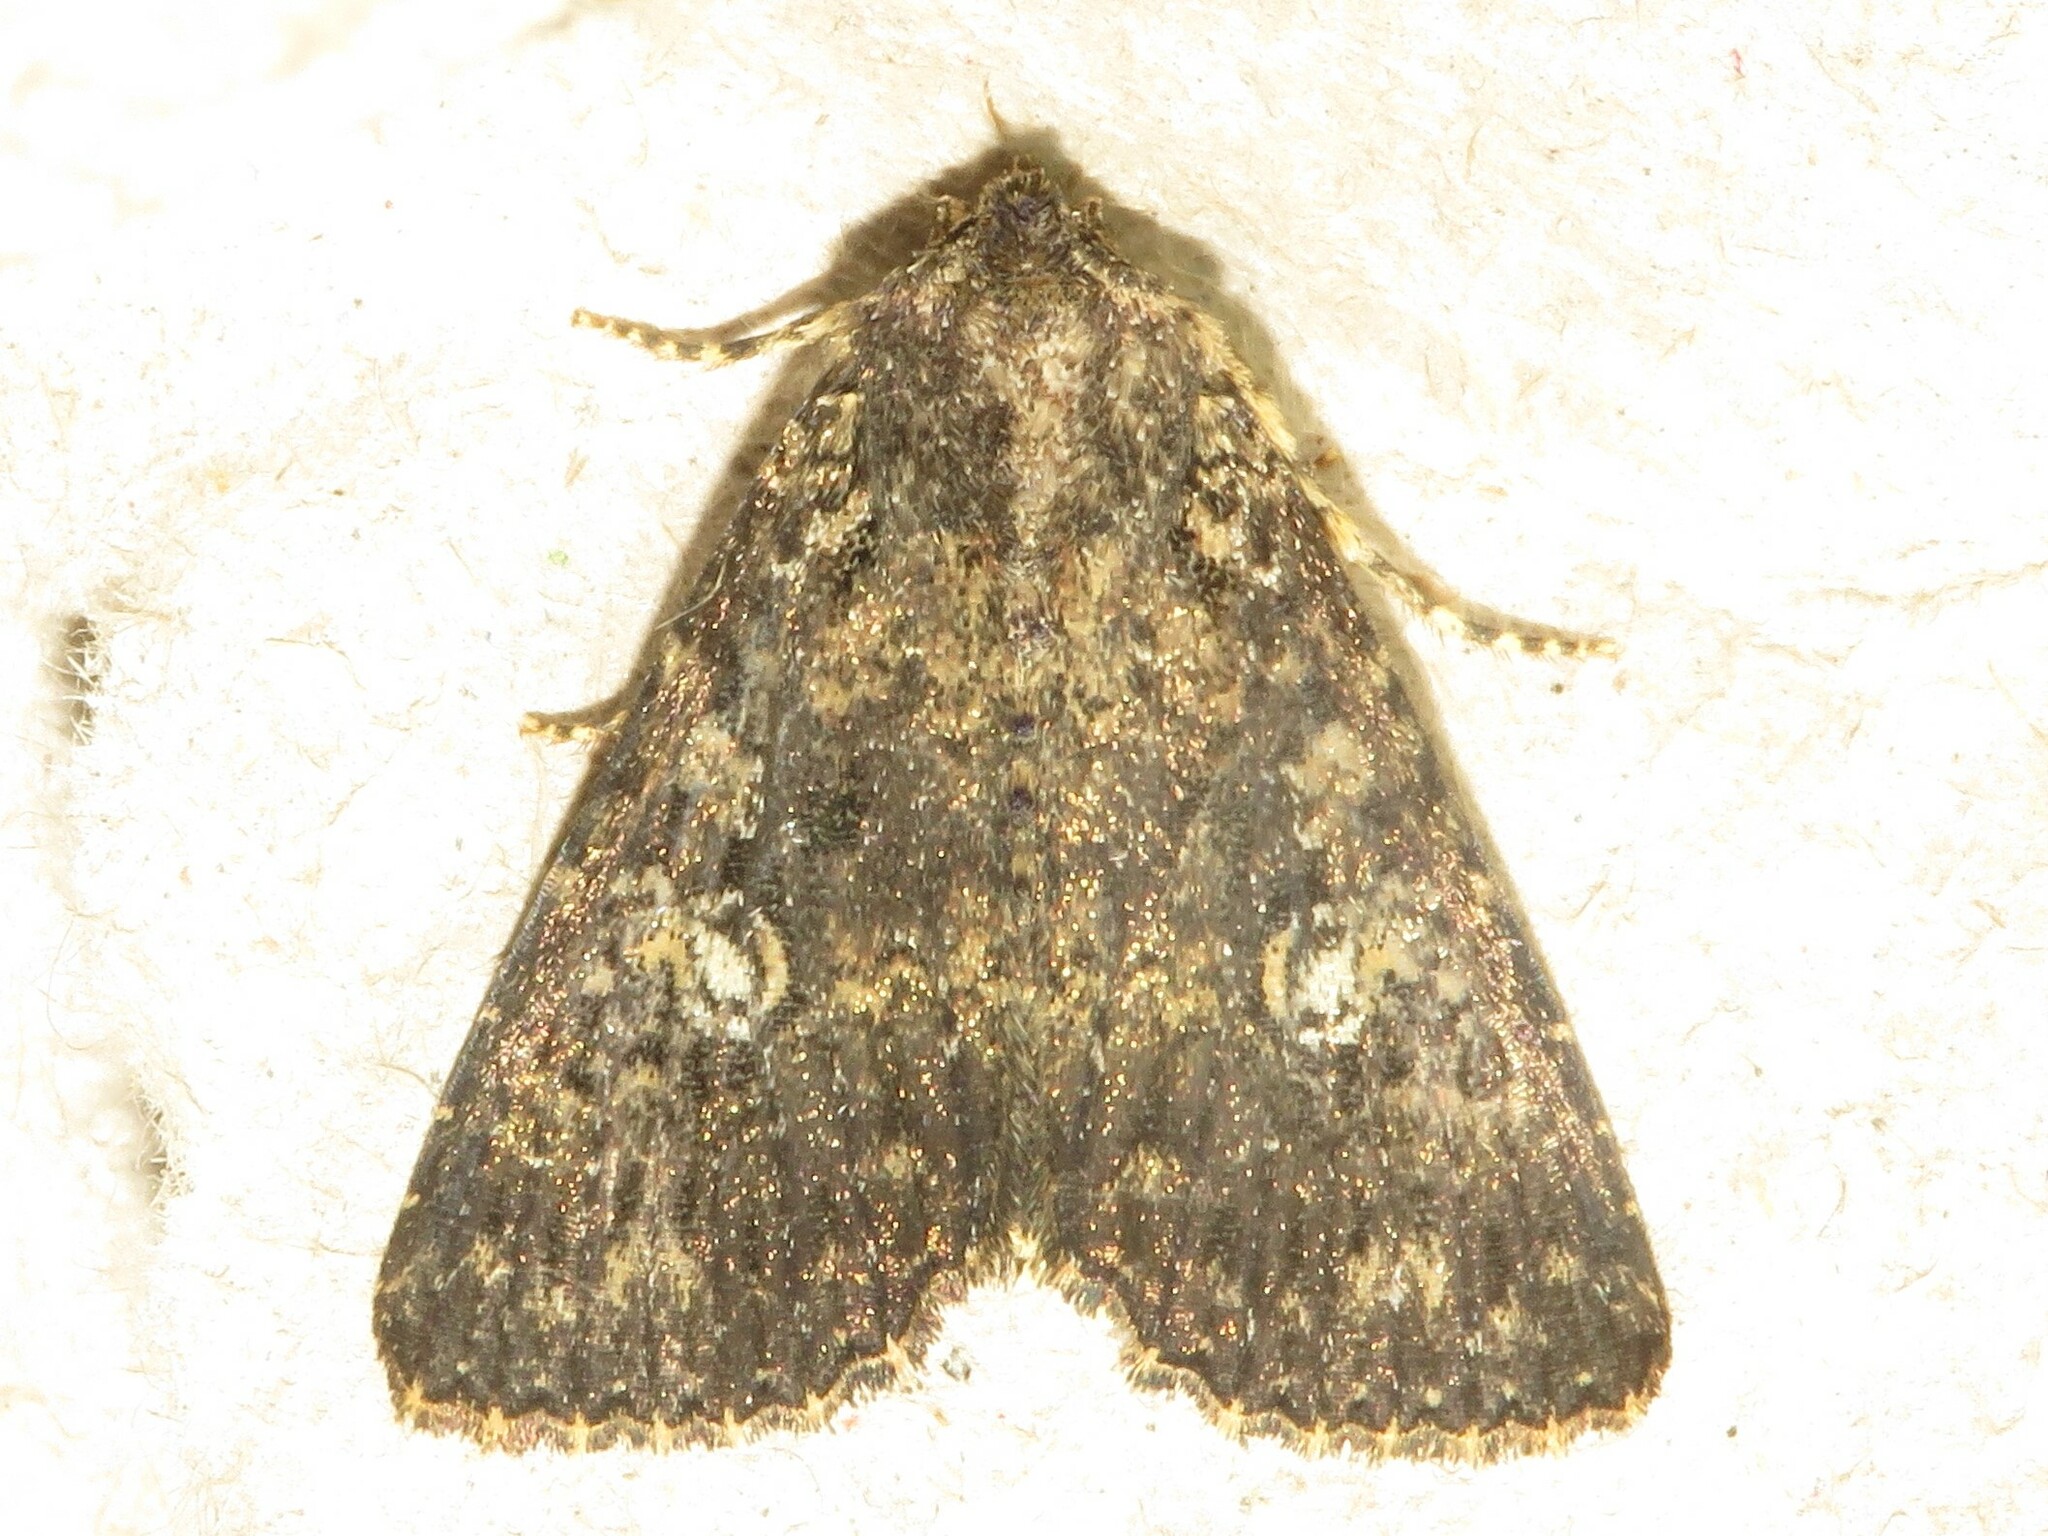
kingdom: Animalia
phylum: Arthropoda
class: Insecta
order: Lepidoptera
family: Noctuidae
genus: Condica
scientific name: Condica vecors
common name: Dusky groundling
